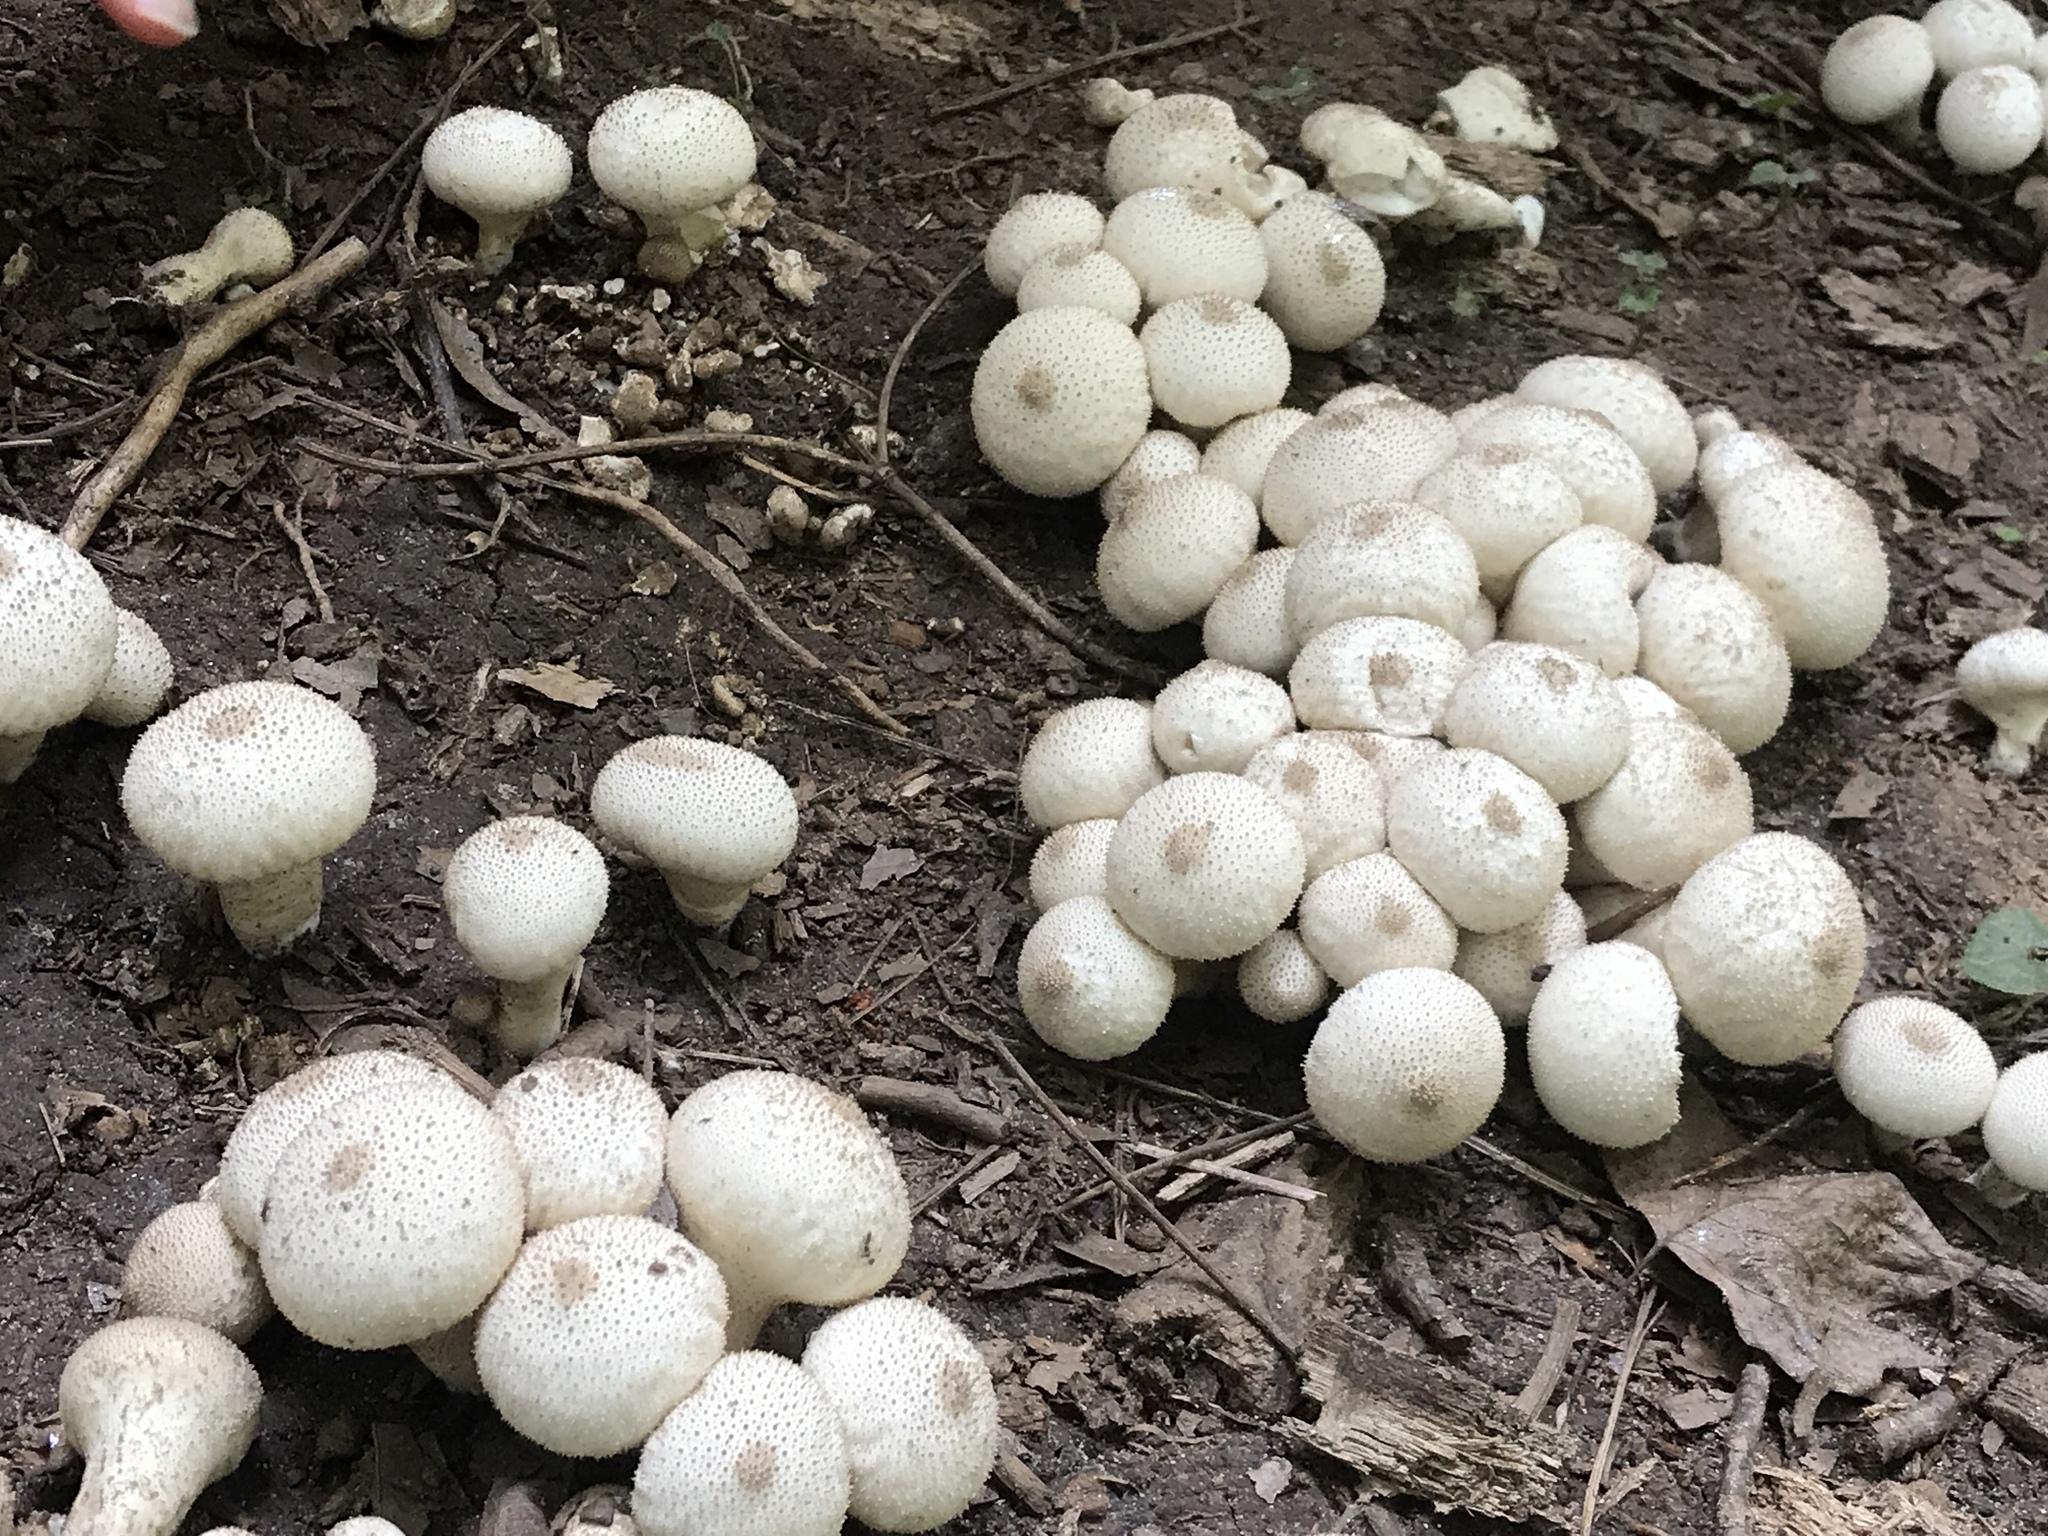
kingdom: Fungi
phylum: Basidiomycota
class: Agaricomycetes
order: Agaricales
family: Lycoperdaceae
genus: Lycoperdon
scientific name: Lycoperdon perlatum
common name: Common puffball
